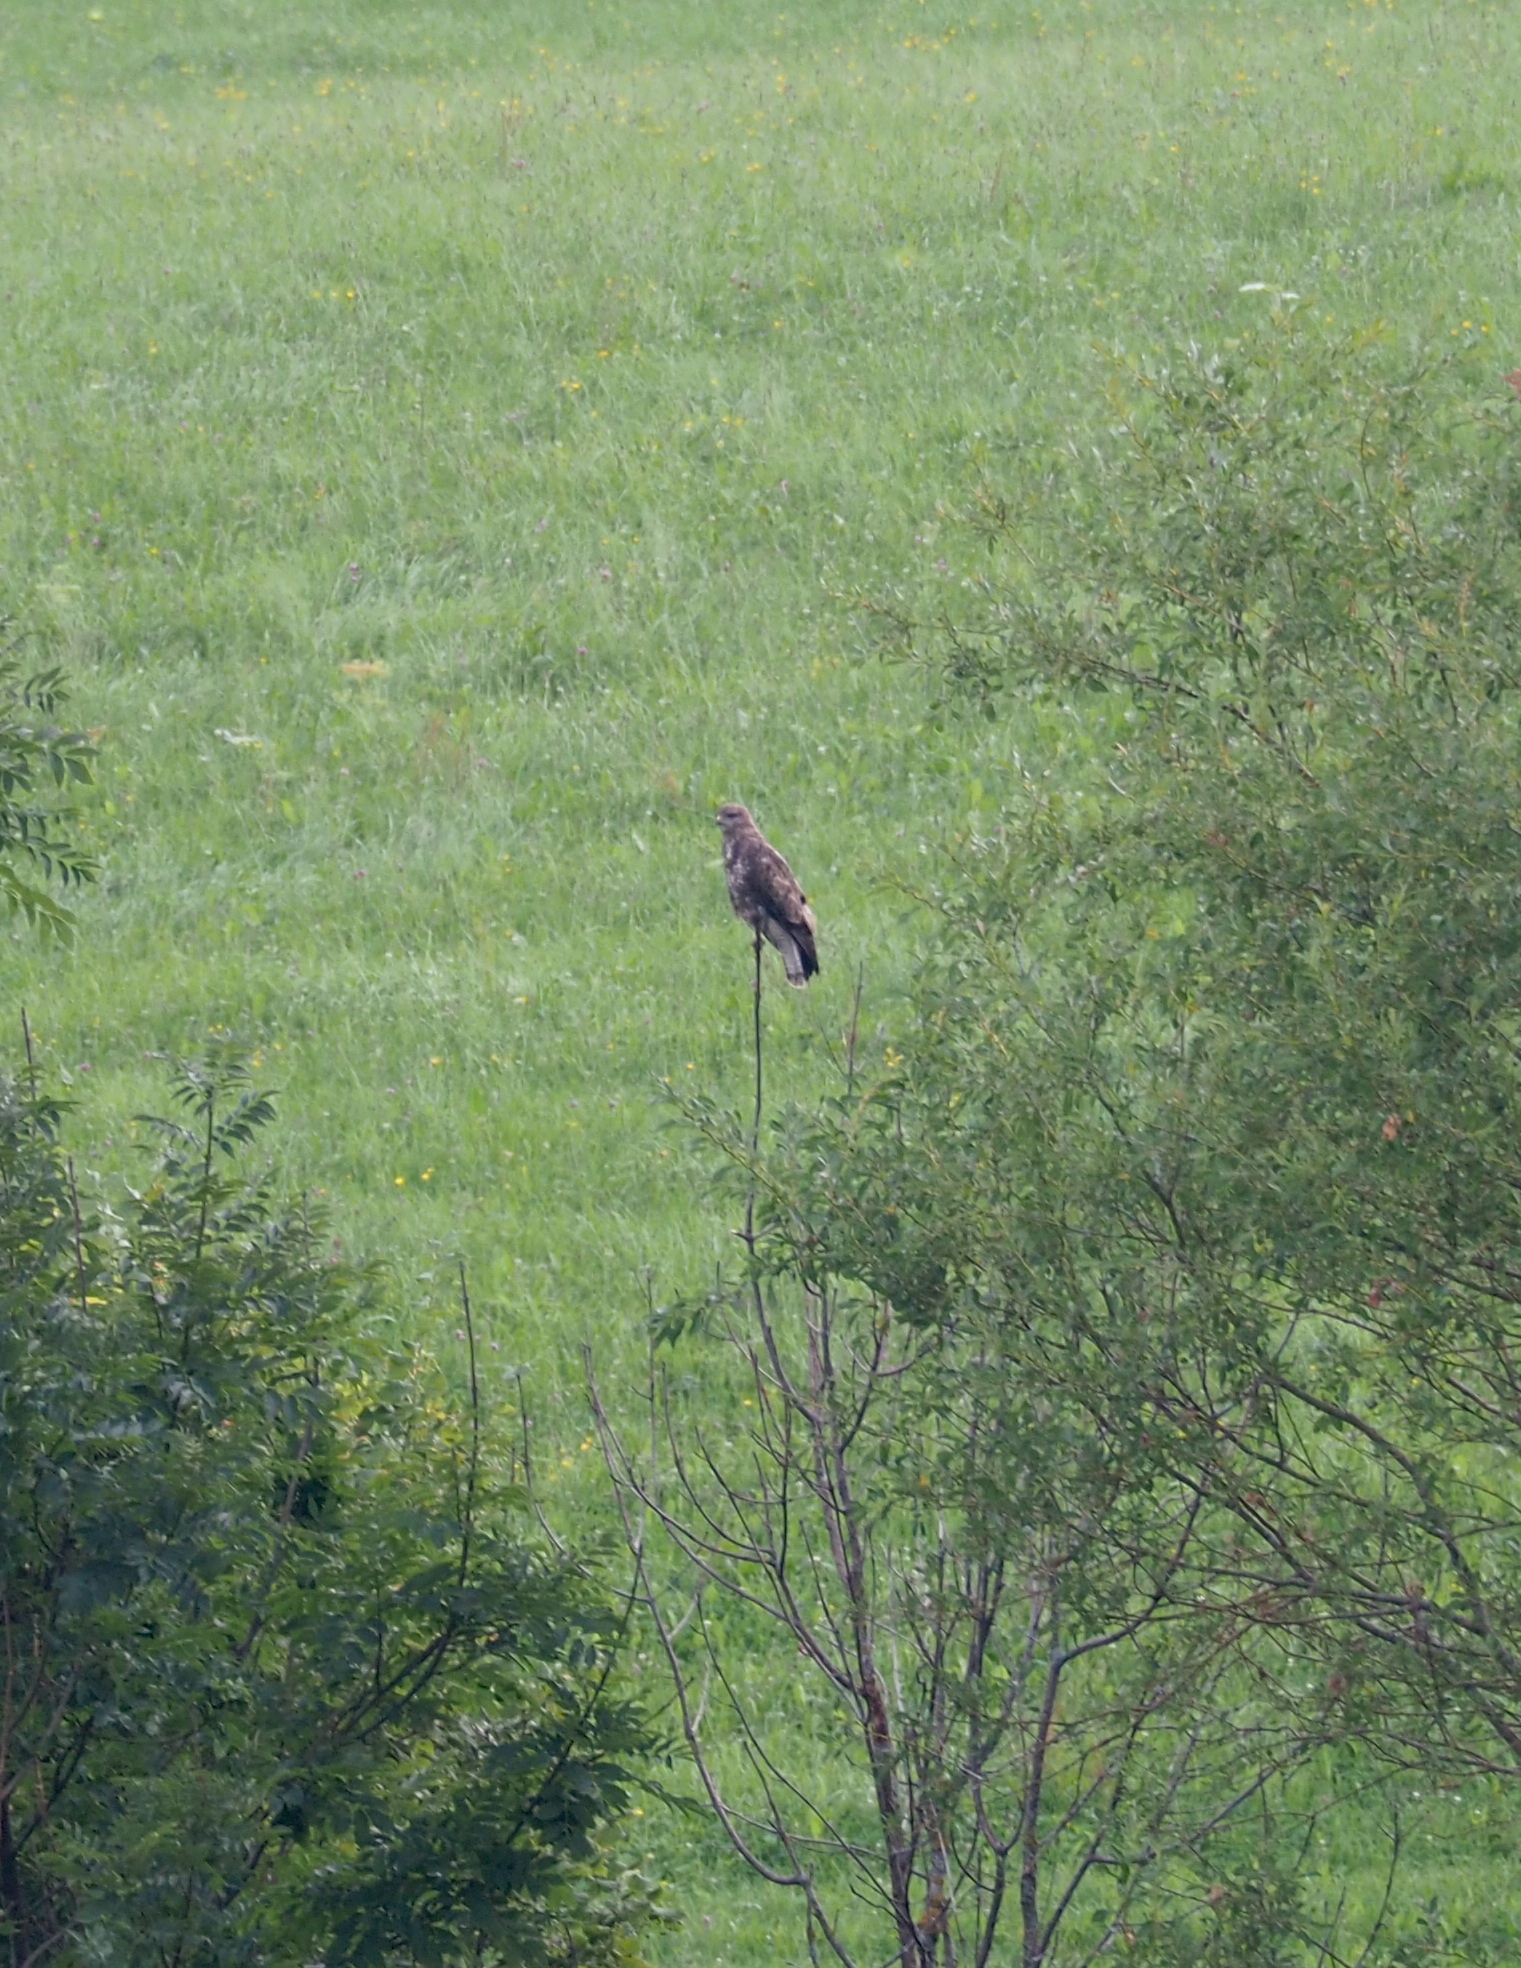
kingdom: Animalia
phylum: Chordata
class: Aves
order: Accipitriformes
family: Accipitridae
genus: Buteo
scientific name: Buteo buteo
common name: Common buzzard
